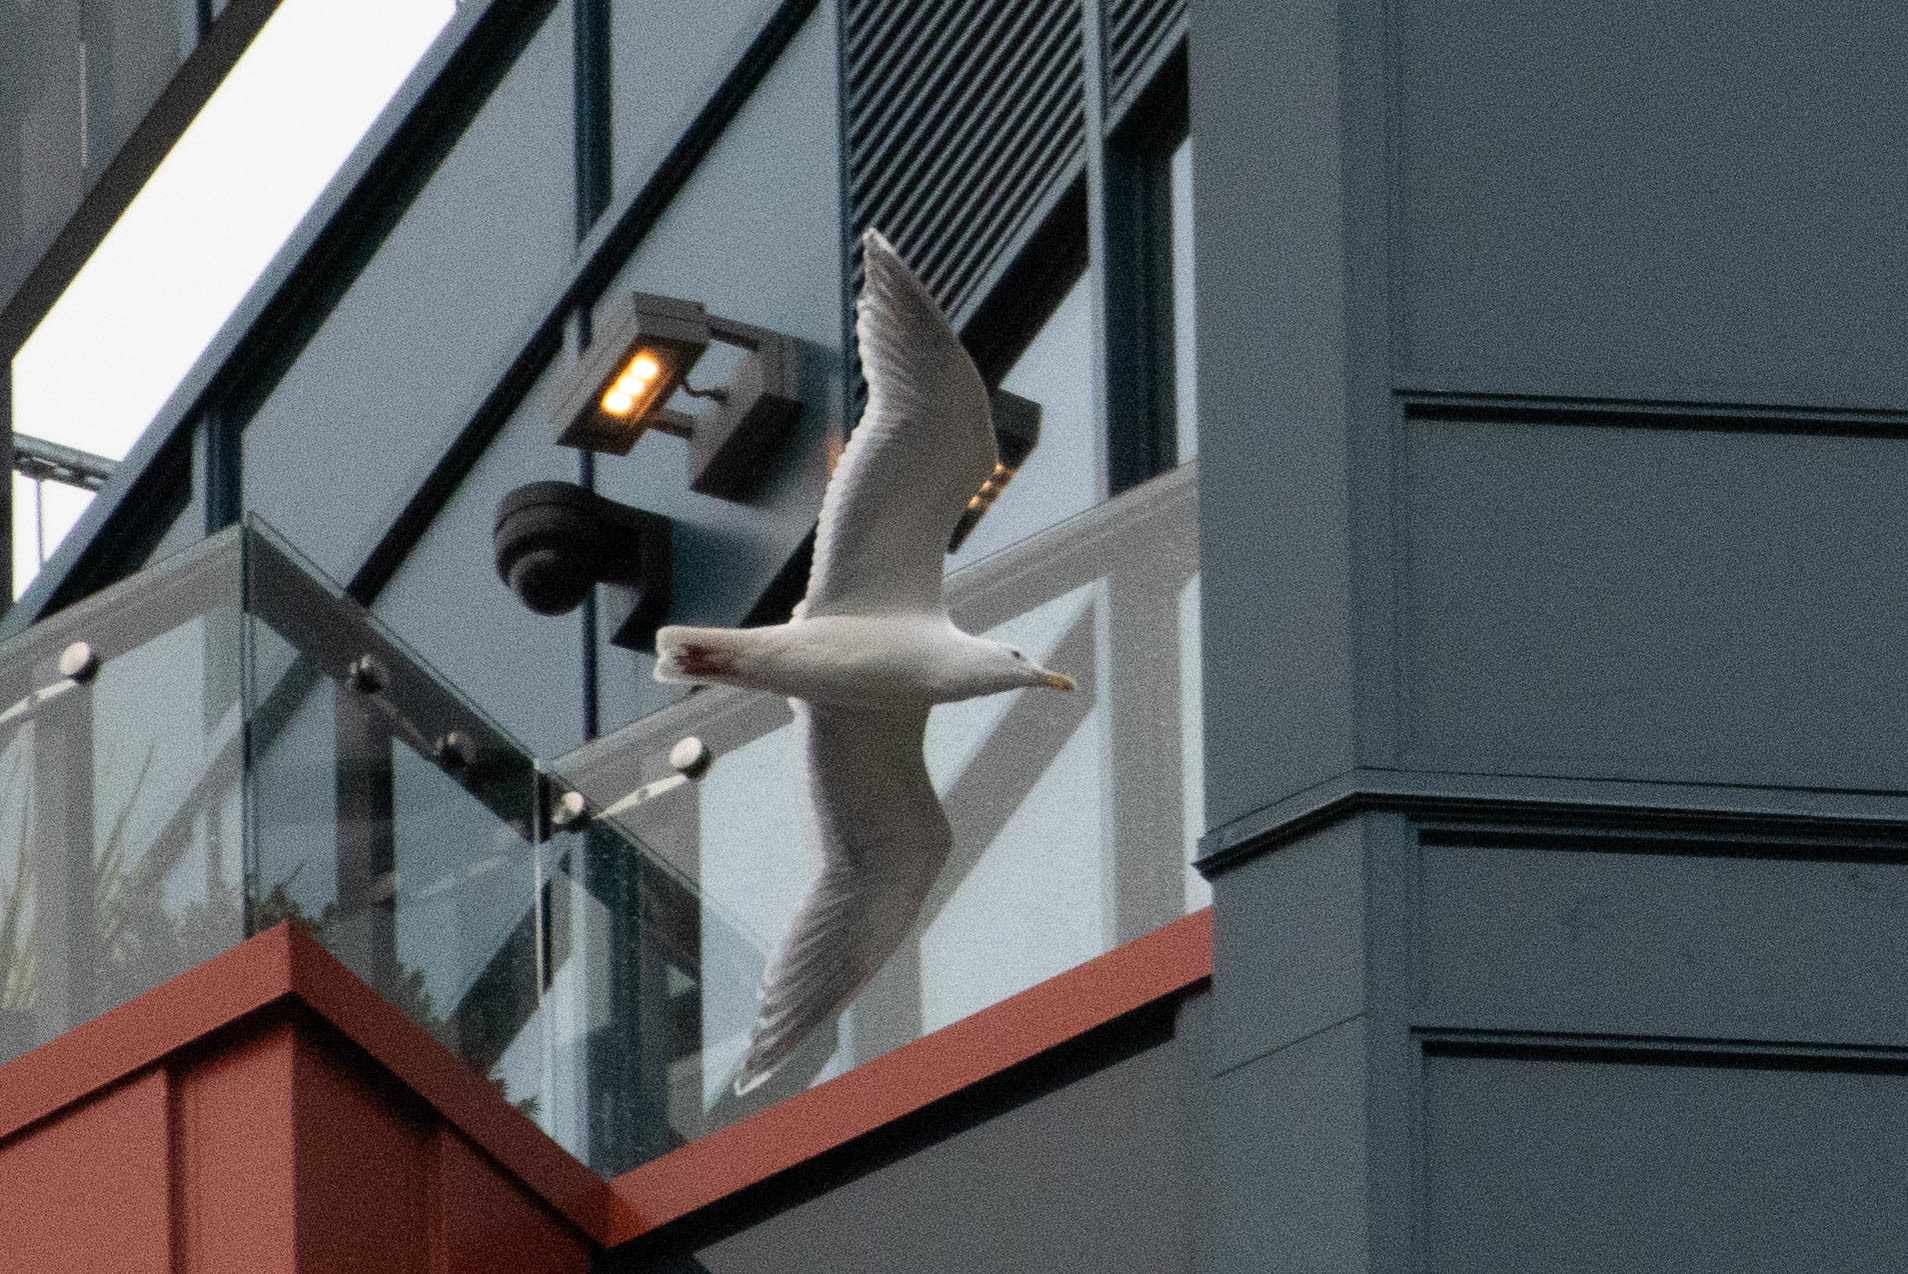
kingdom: Animalia
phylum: Chordata
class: Aves
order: Charadriiformes
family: Laridae
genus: Larus
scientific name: Larus glaucescens
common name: Glaucous-winged gull
